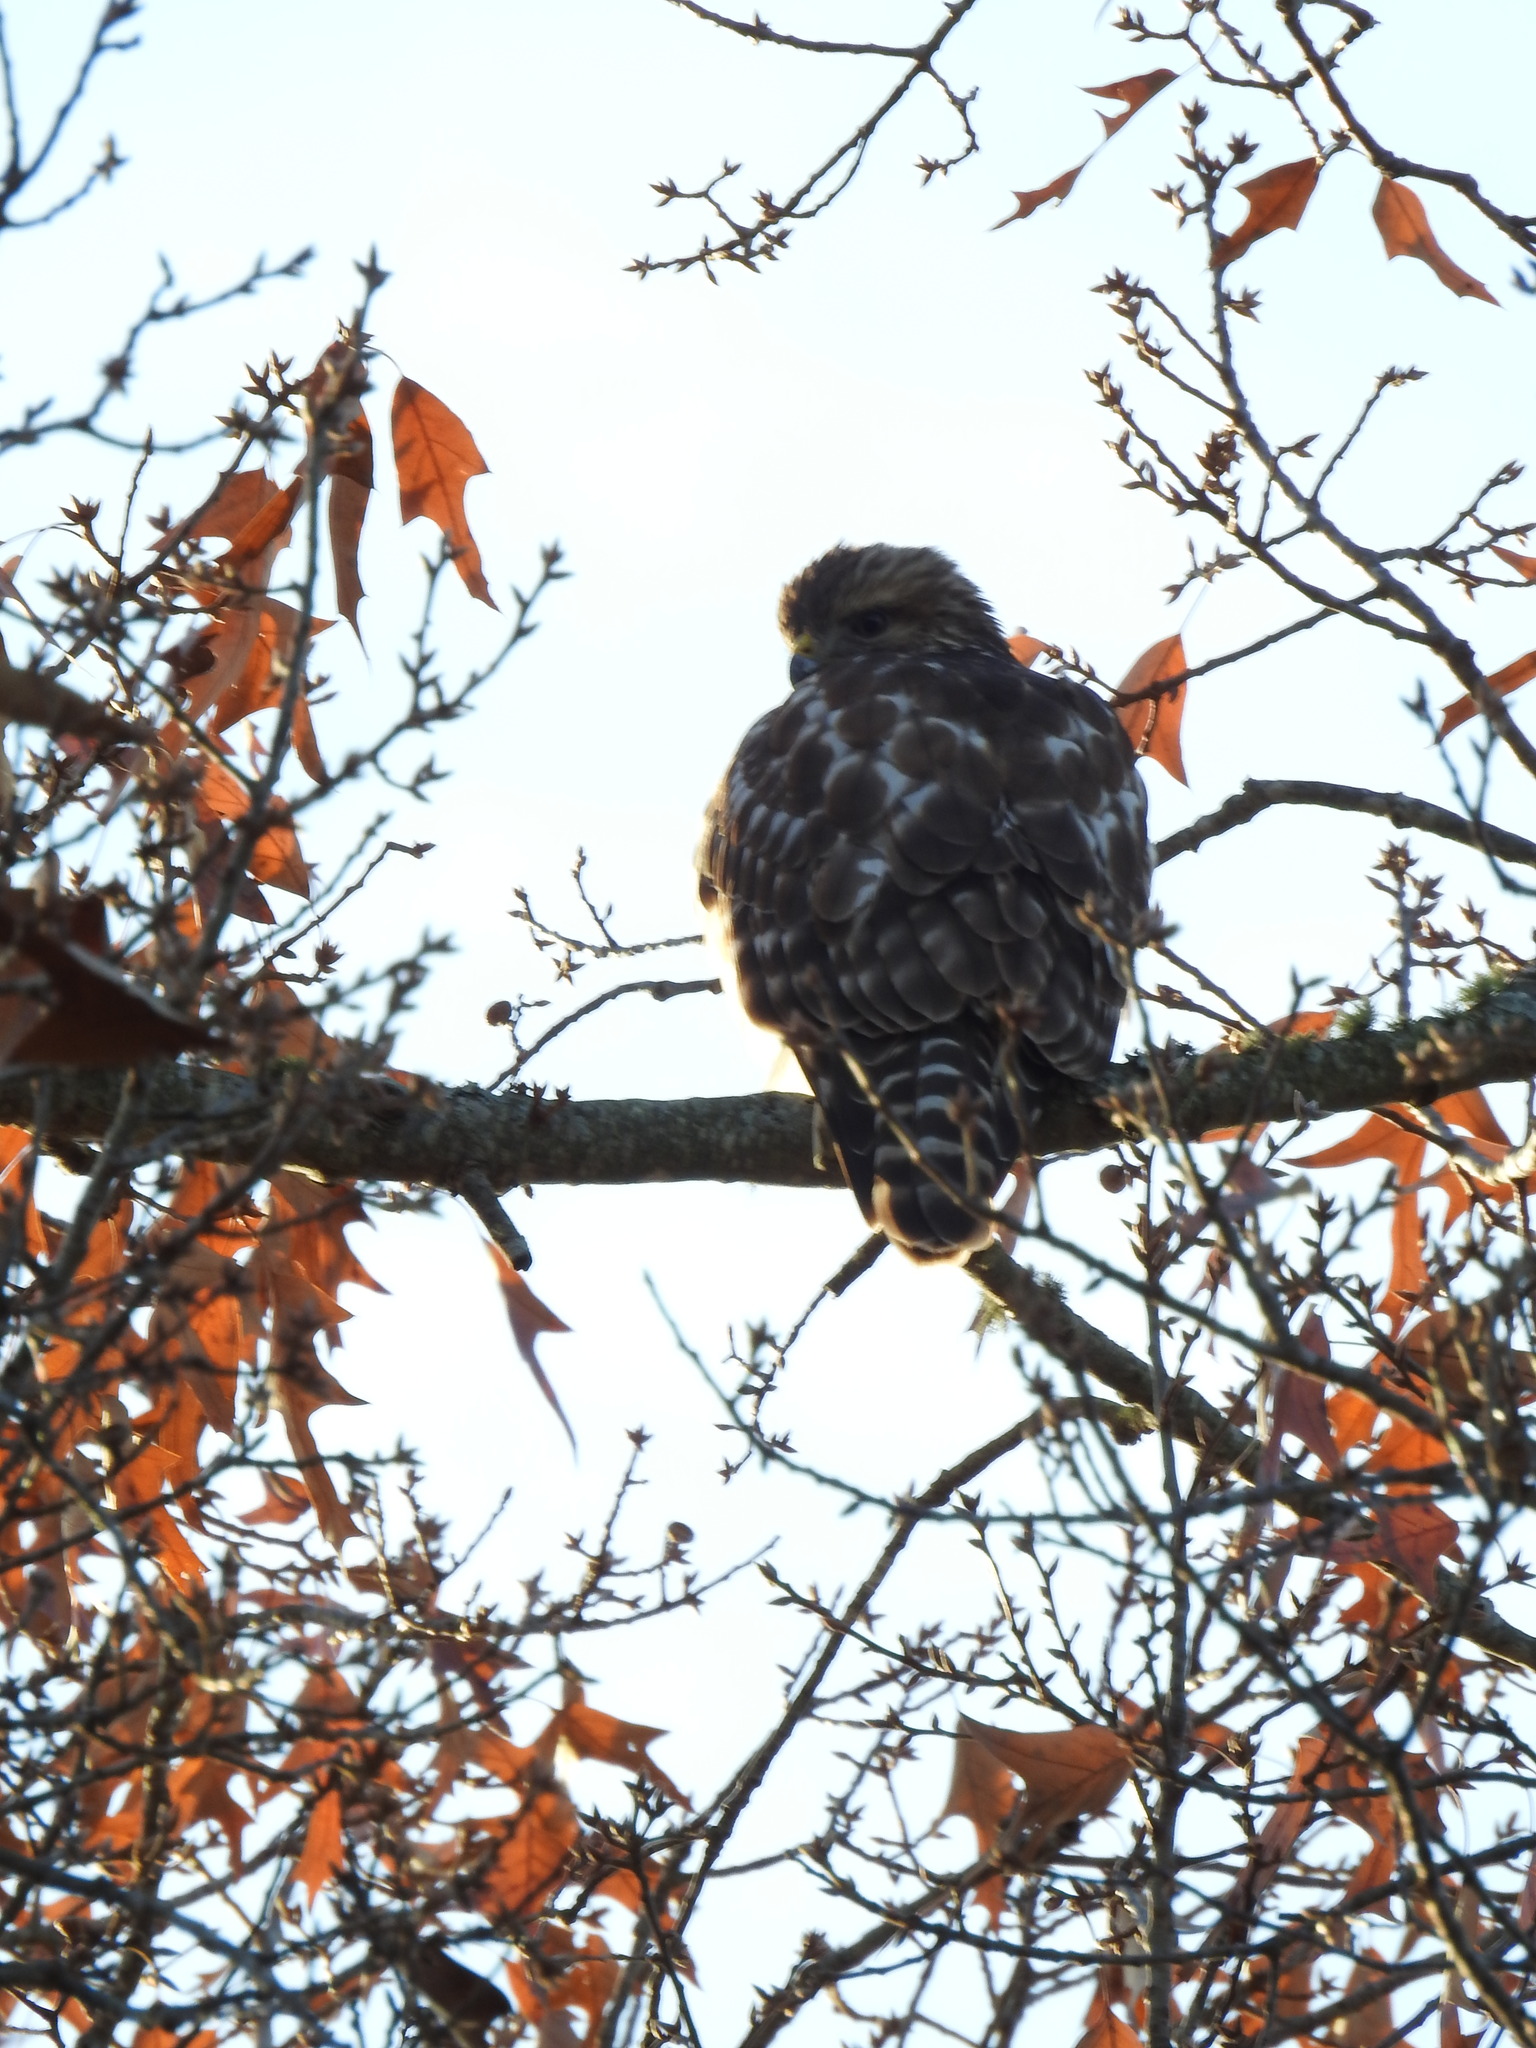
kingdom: Animalia
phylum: Chordata
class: Aves
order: Accipitriformes
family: Accipitridae
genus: Buteo
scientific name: Buteo lineatus
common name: Red-shouldered hawk
